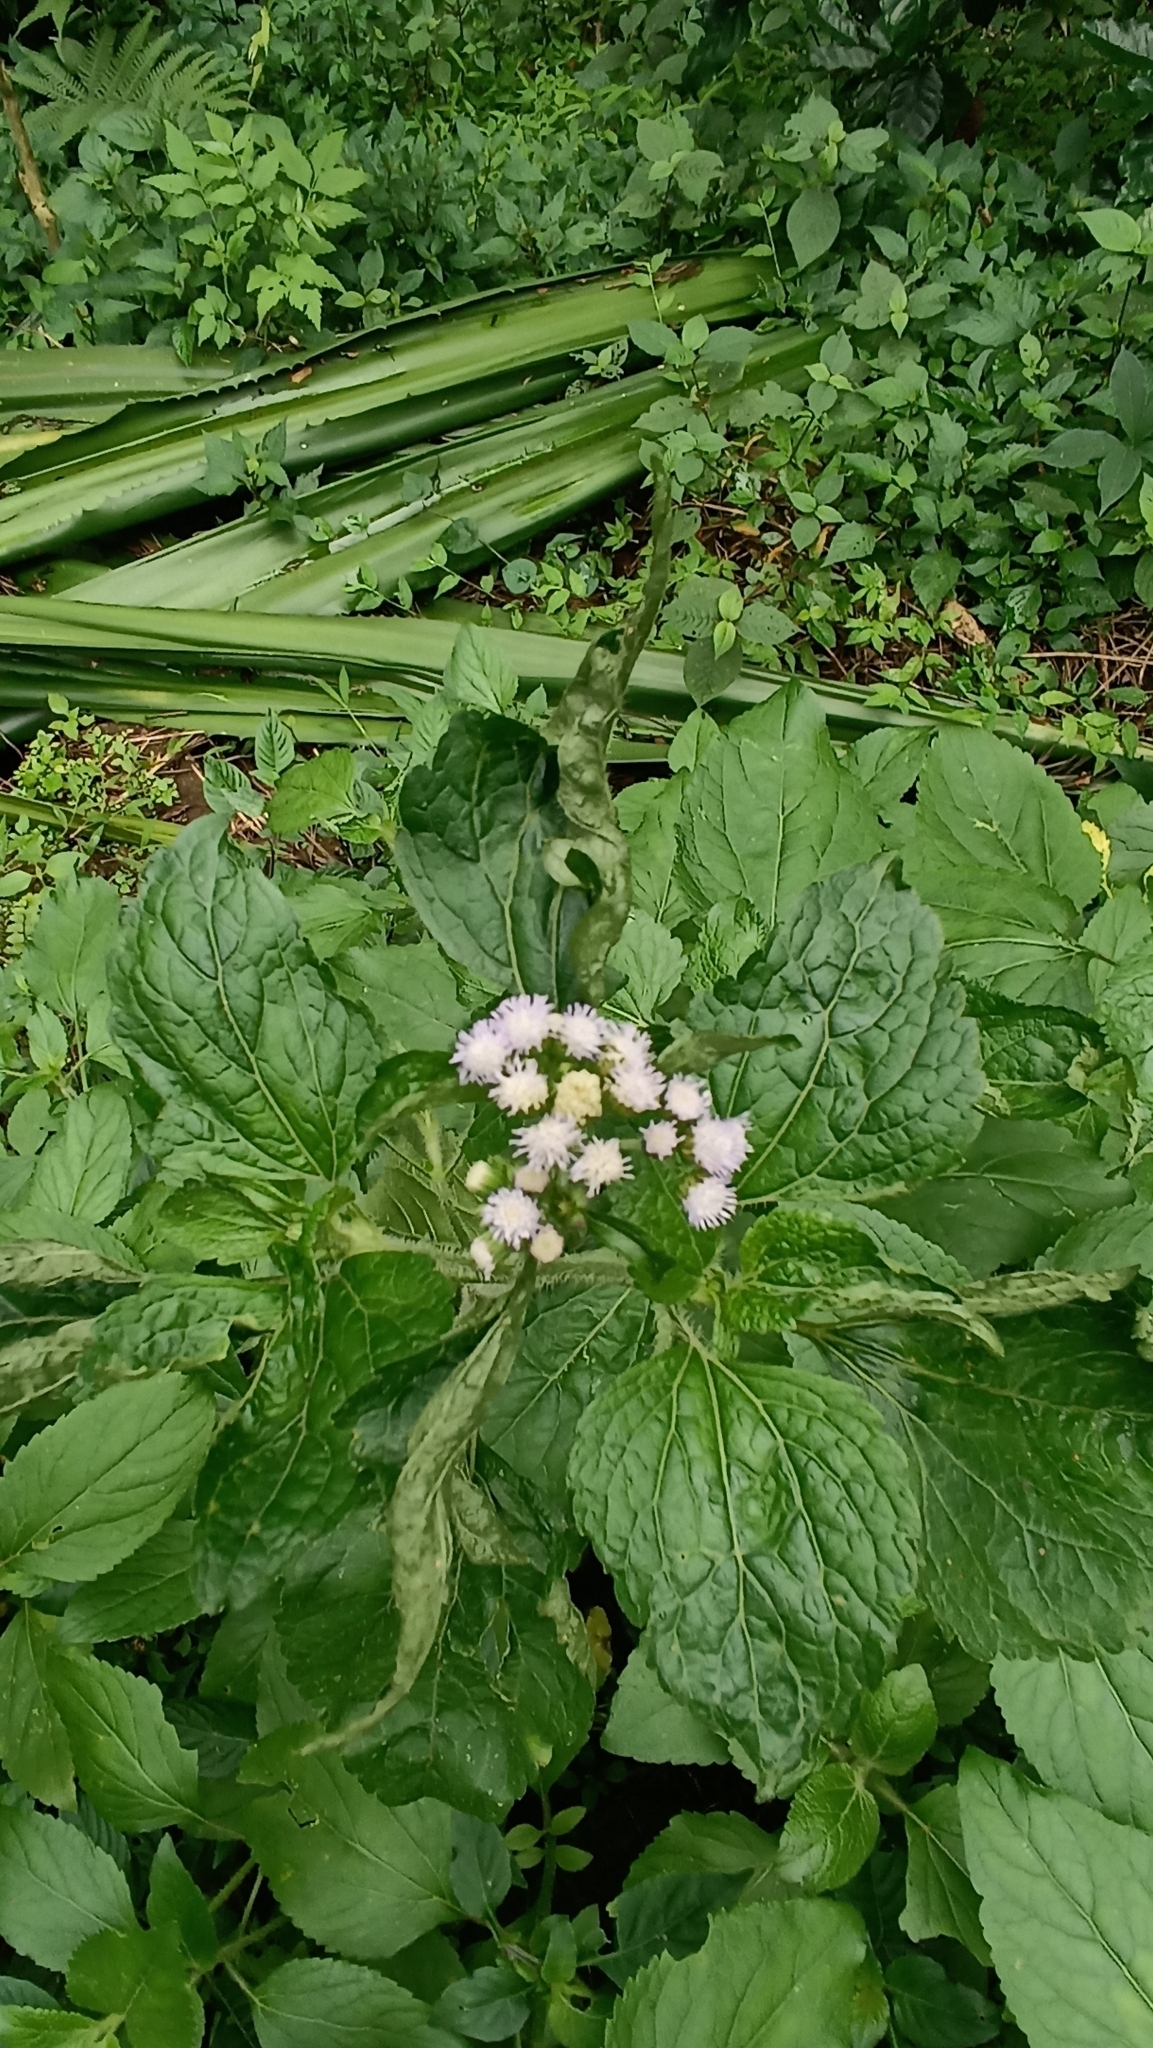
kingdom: Plantae
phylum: Tracheophyta
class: Magnoliopsida
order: Asterales
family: Asteraceae
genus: Ageratum
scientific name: Ageratum conyzoides
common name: Tropical whiteweed
